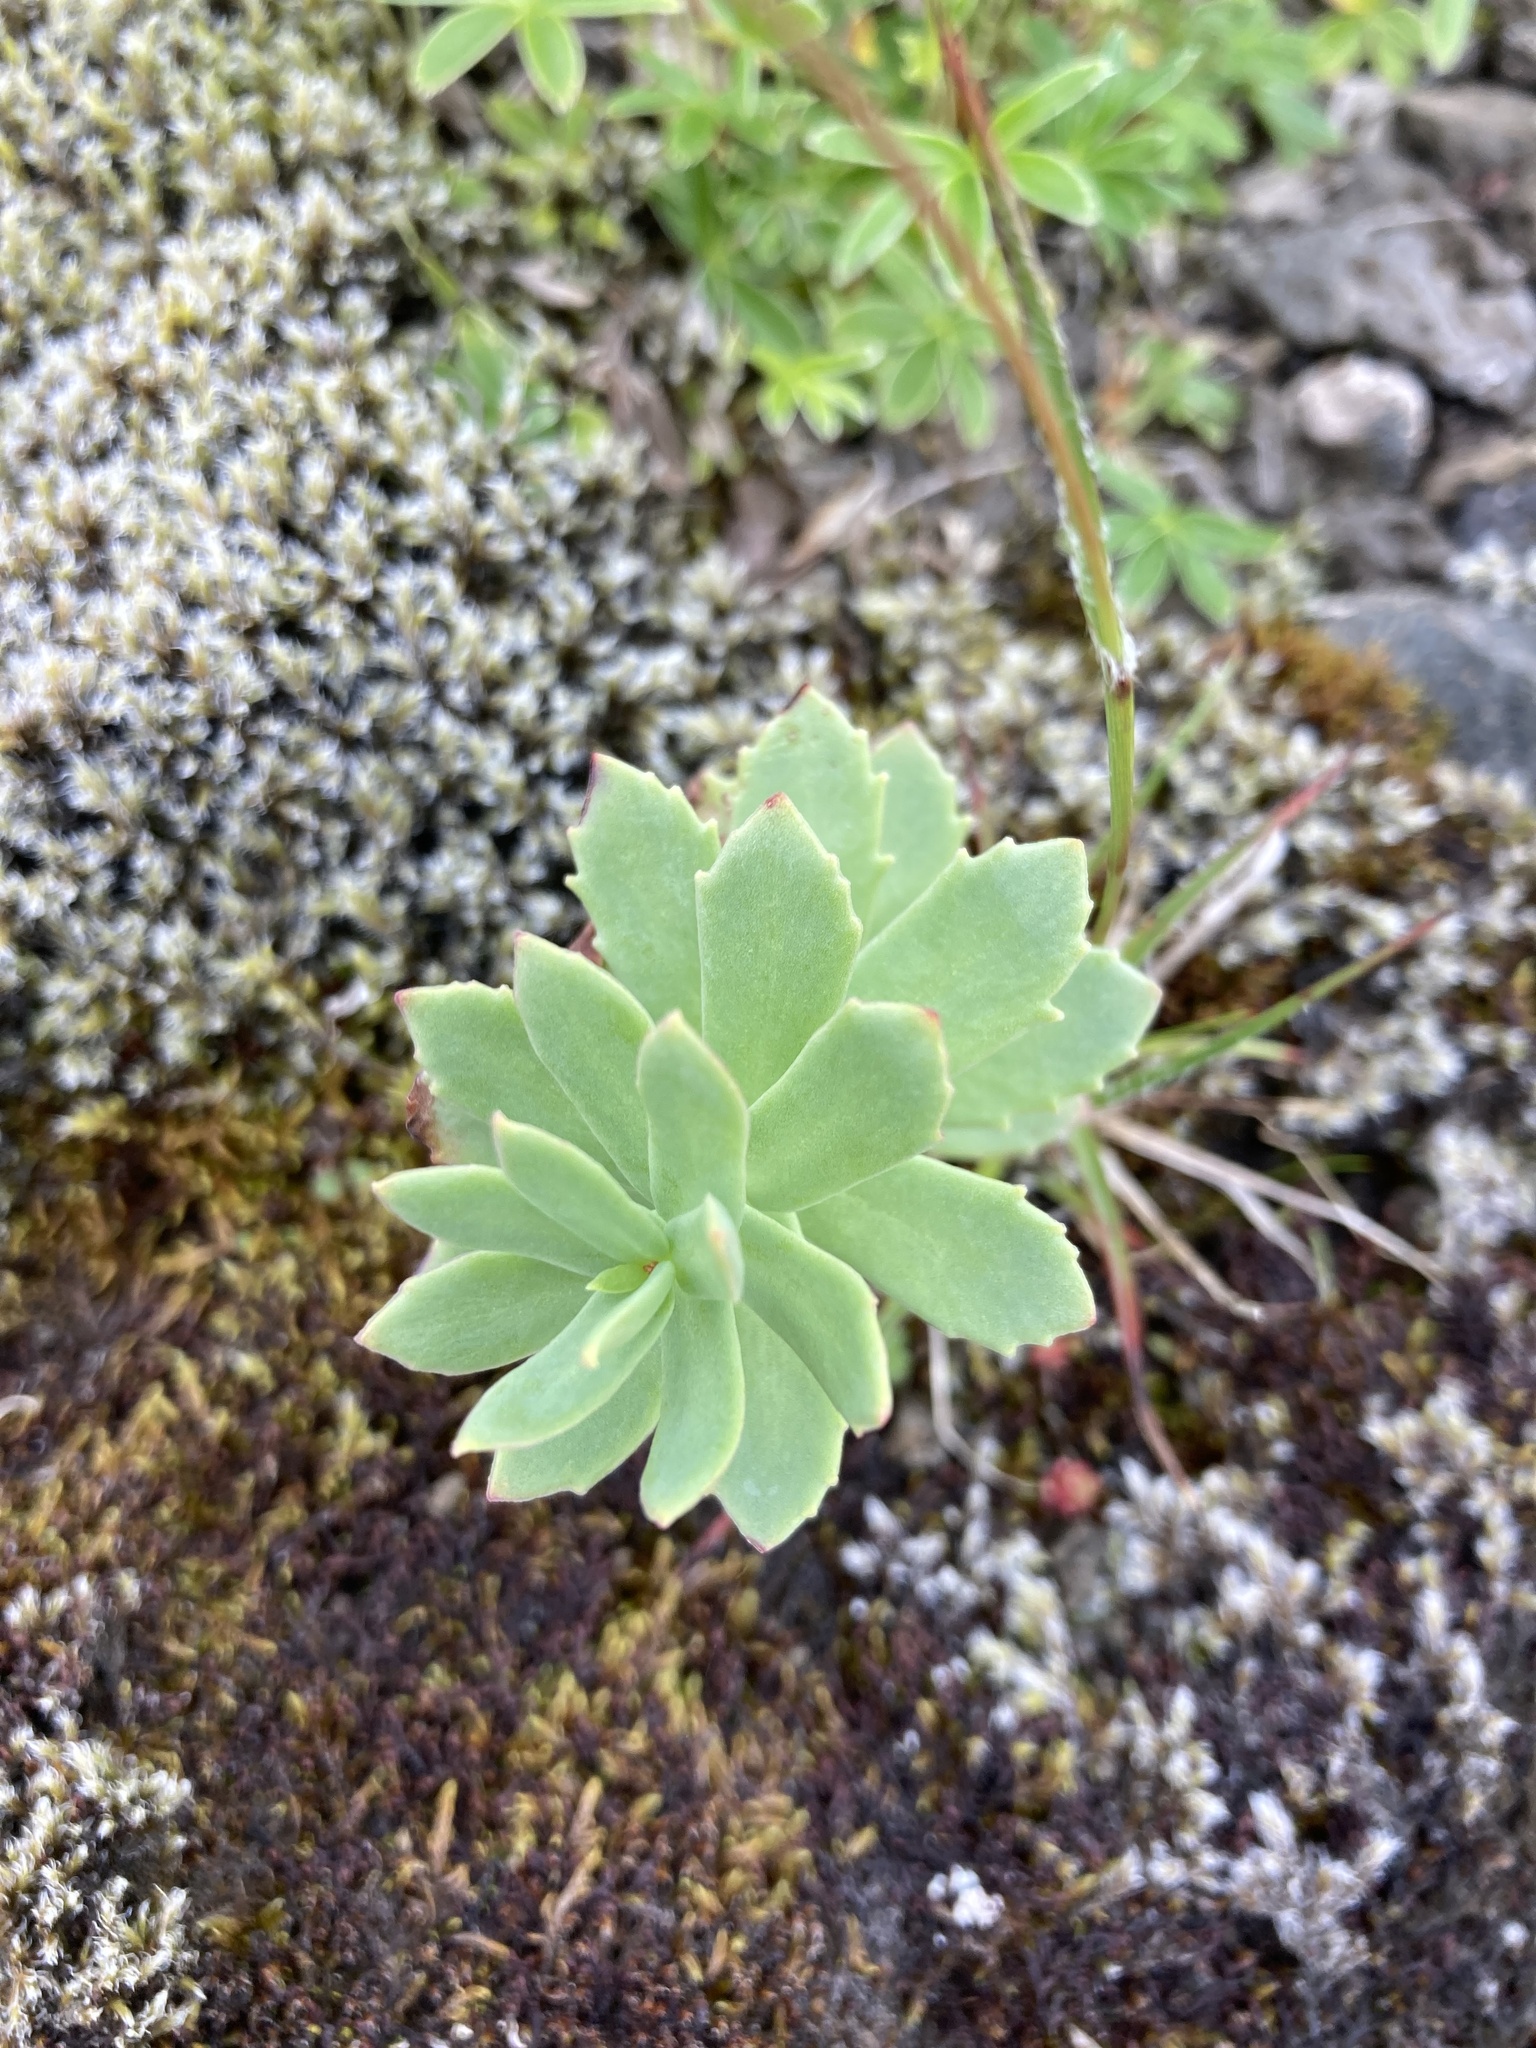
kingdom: Plantae
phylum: Tracheophyta
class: Magnoliopsida
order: Saxifragales
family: Crassulaceae
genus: Rhodiola
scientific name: Rhodiola rosea
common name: Roseroot
